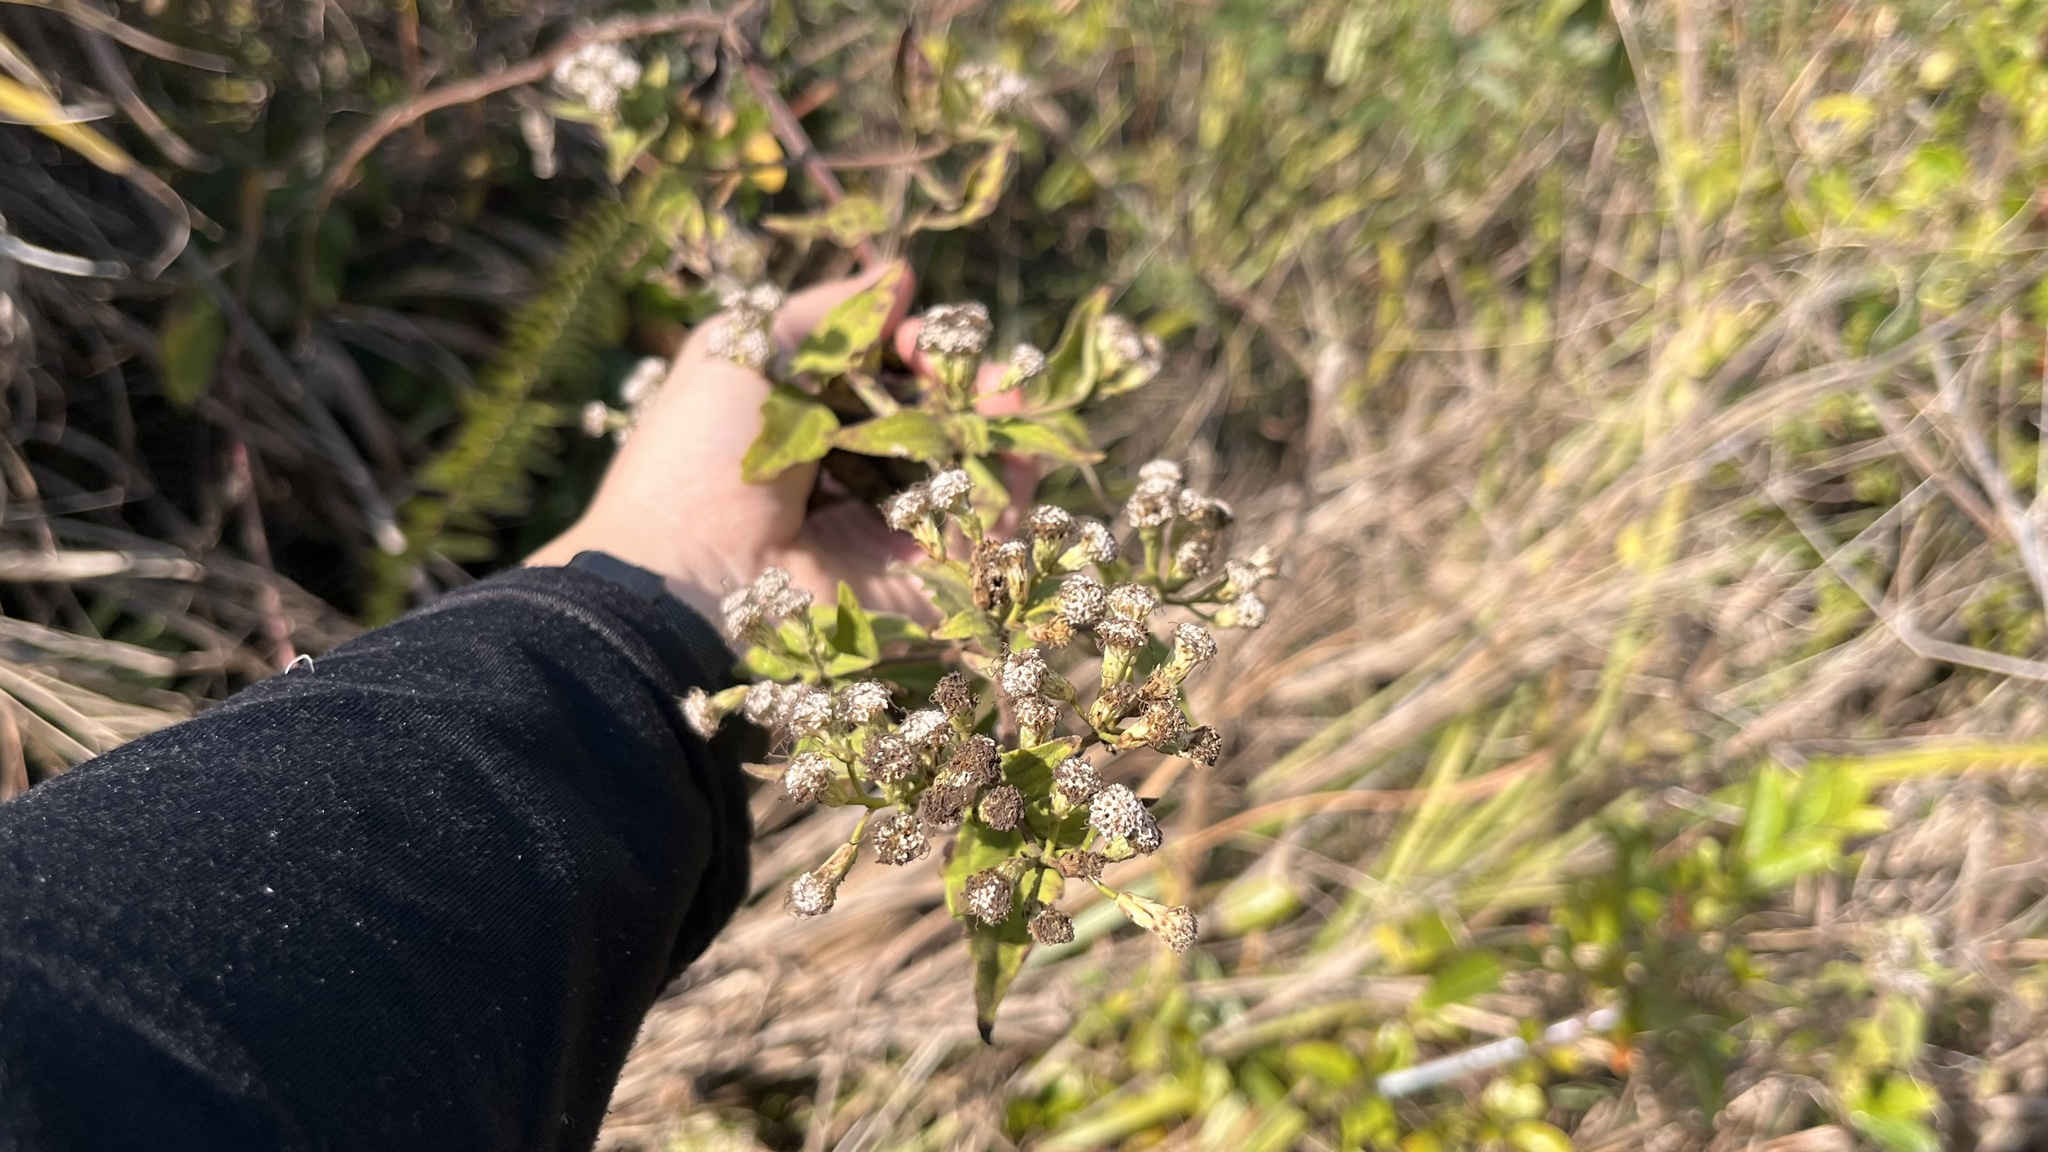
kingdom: Plantae
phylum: Tracheophyta
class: Magnoliopsida
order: Asterales
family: Asteraceae
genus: Chromolaena
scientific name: Chromolaena odorata
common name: Siamweed
